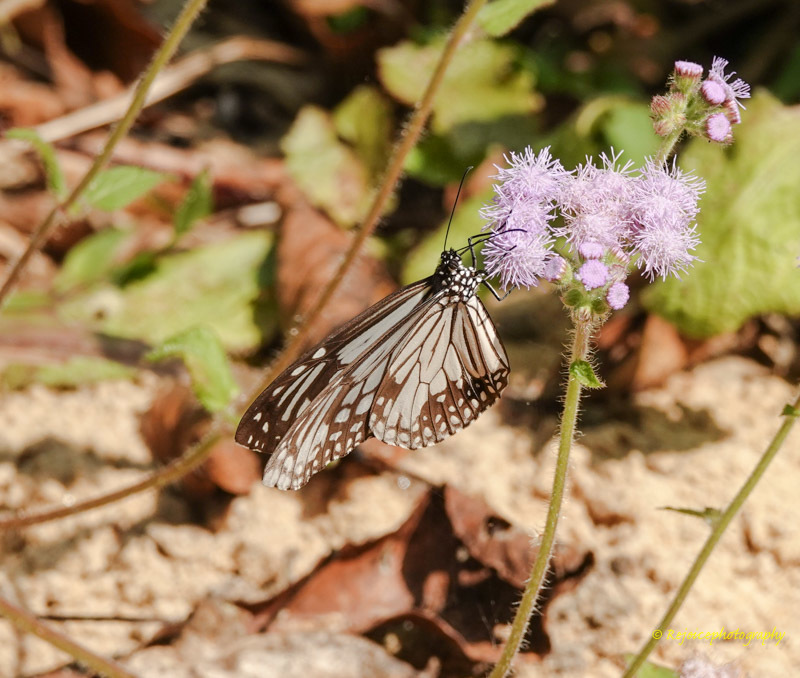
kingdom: Animalia
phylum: Arthropoda
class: Insecta
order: Lepidoptera
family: Nymphalidae
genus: Parantica
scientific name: Parantica aglea
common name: Glassy tiger
